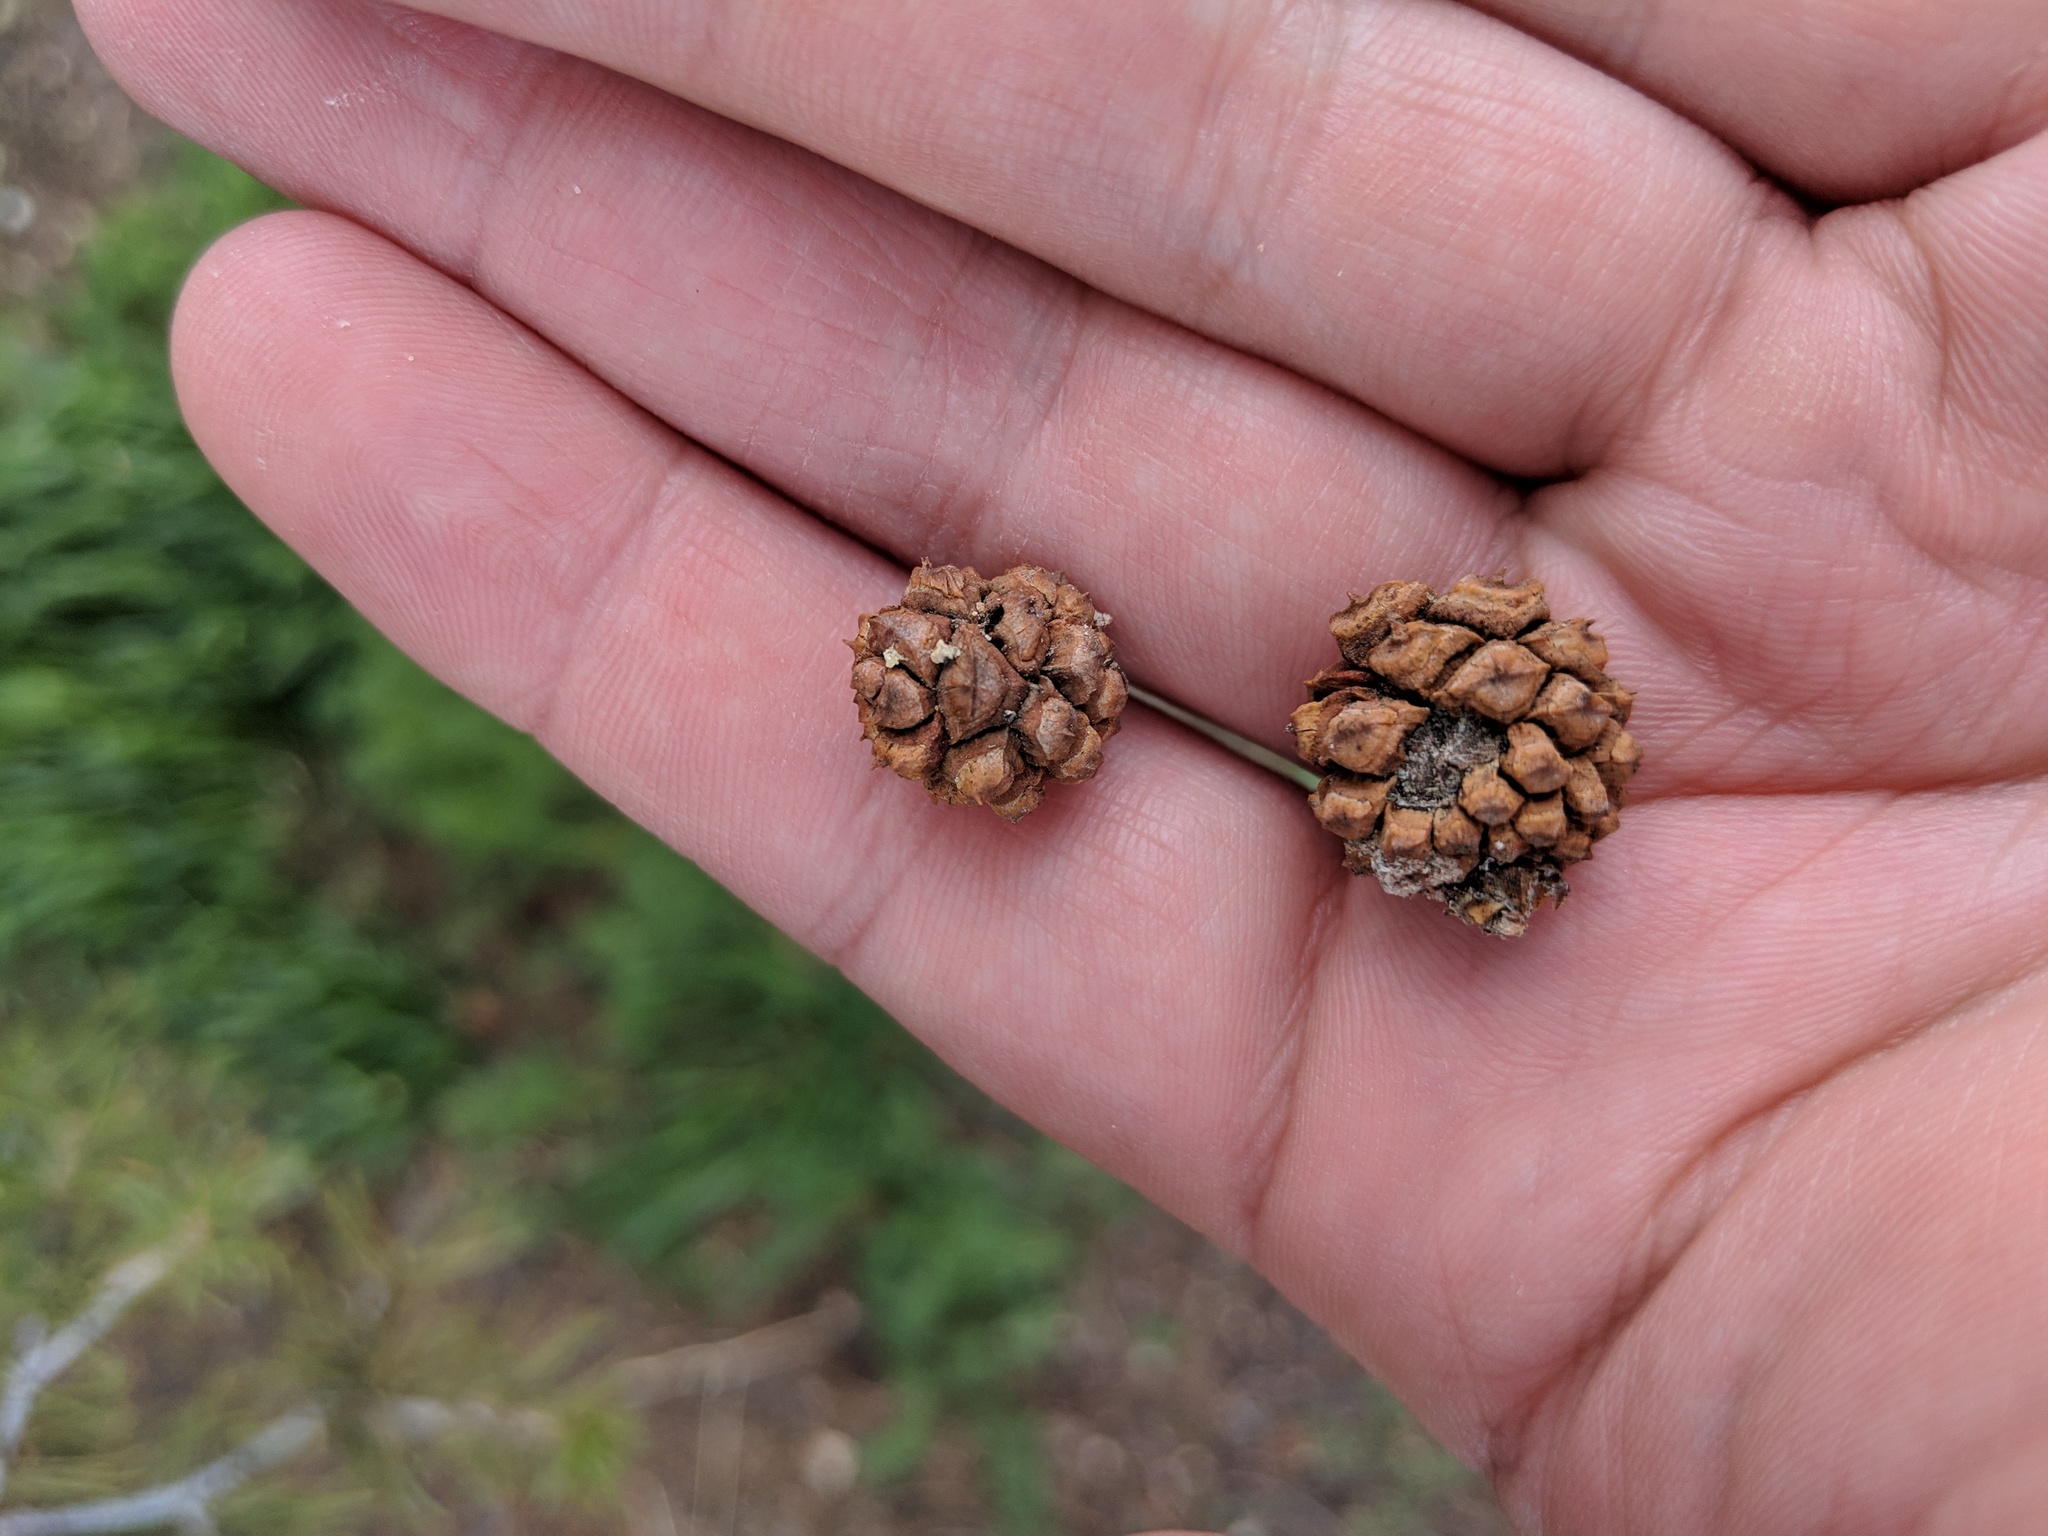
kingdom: Plantae
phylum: Tracheophyta
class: Pinopsida
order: Pinales
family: Pinaceae
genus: Pinus
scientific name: Pinus edulis
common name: Colorado pinyon
